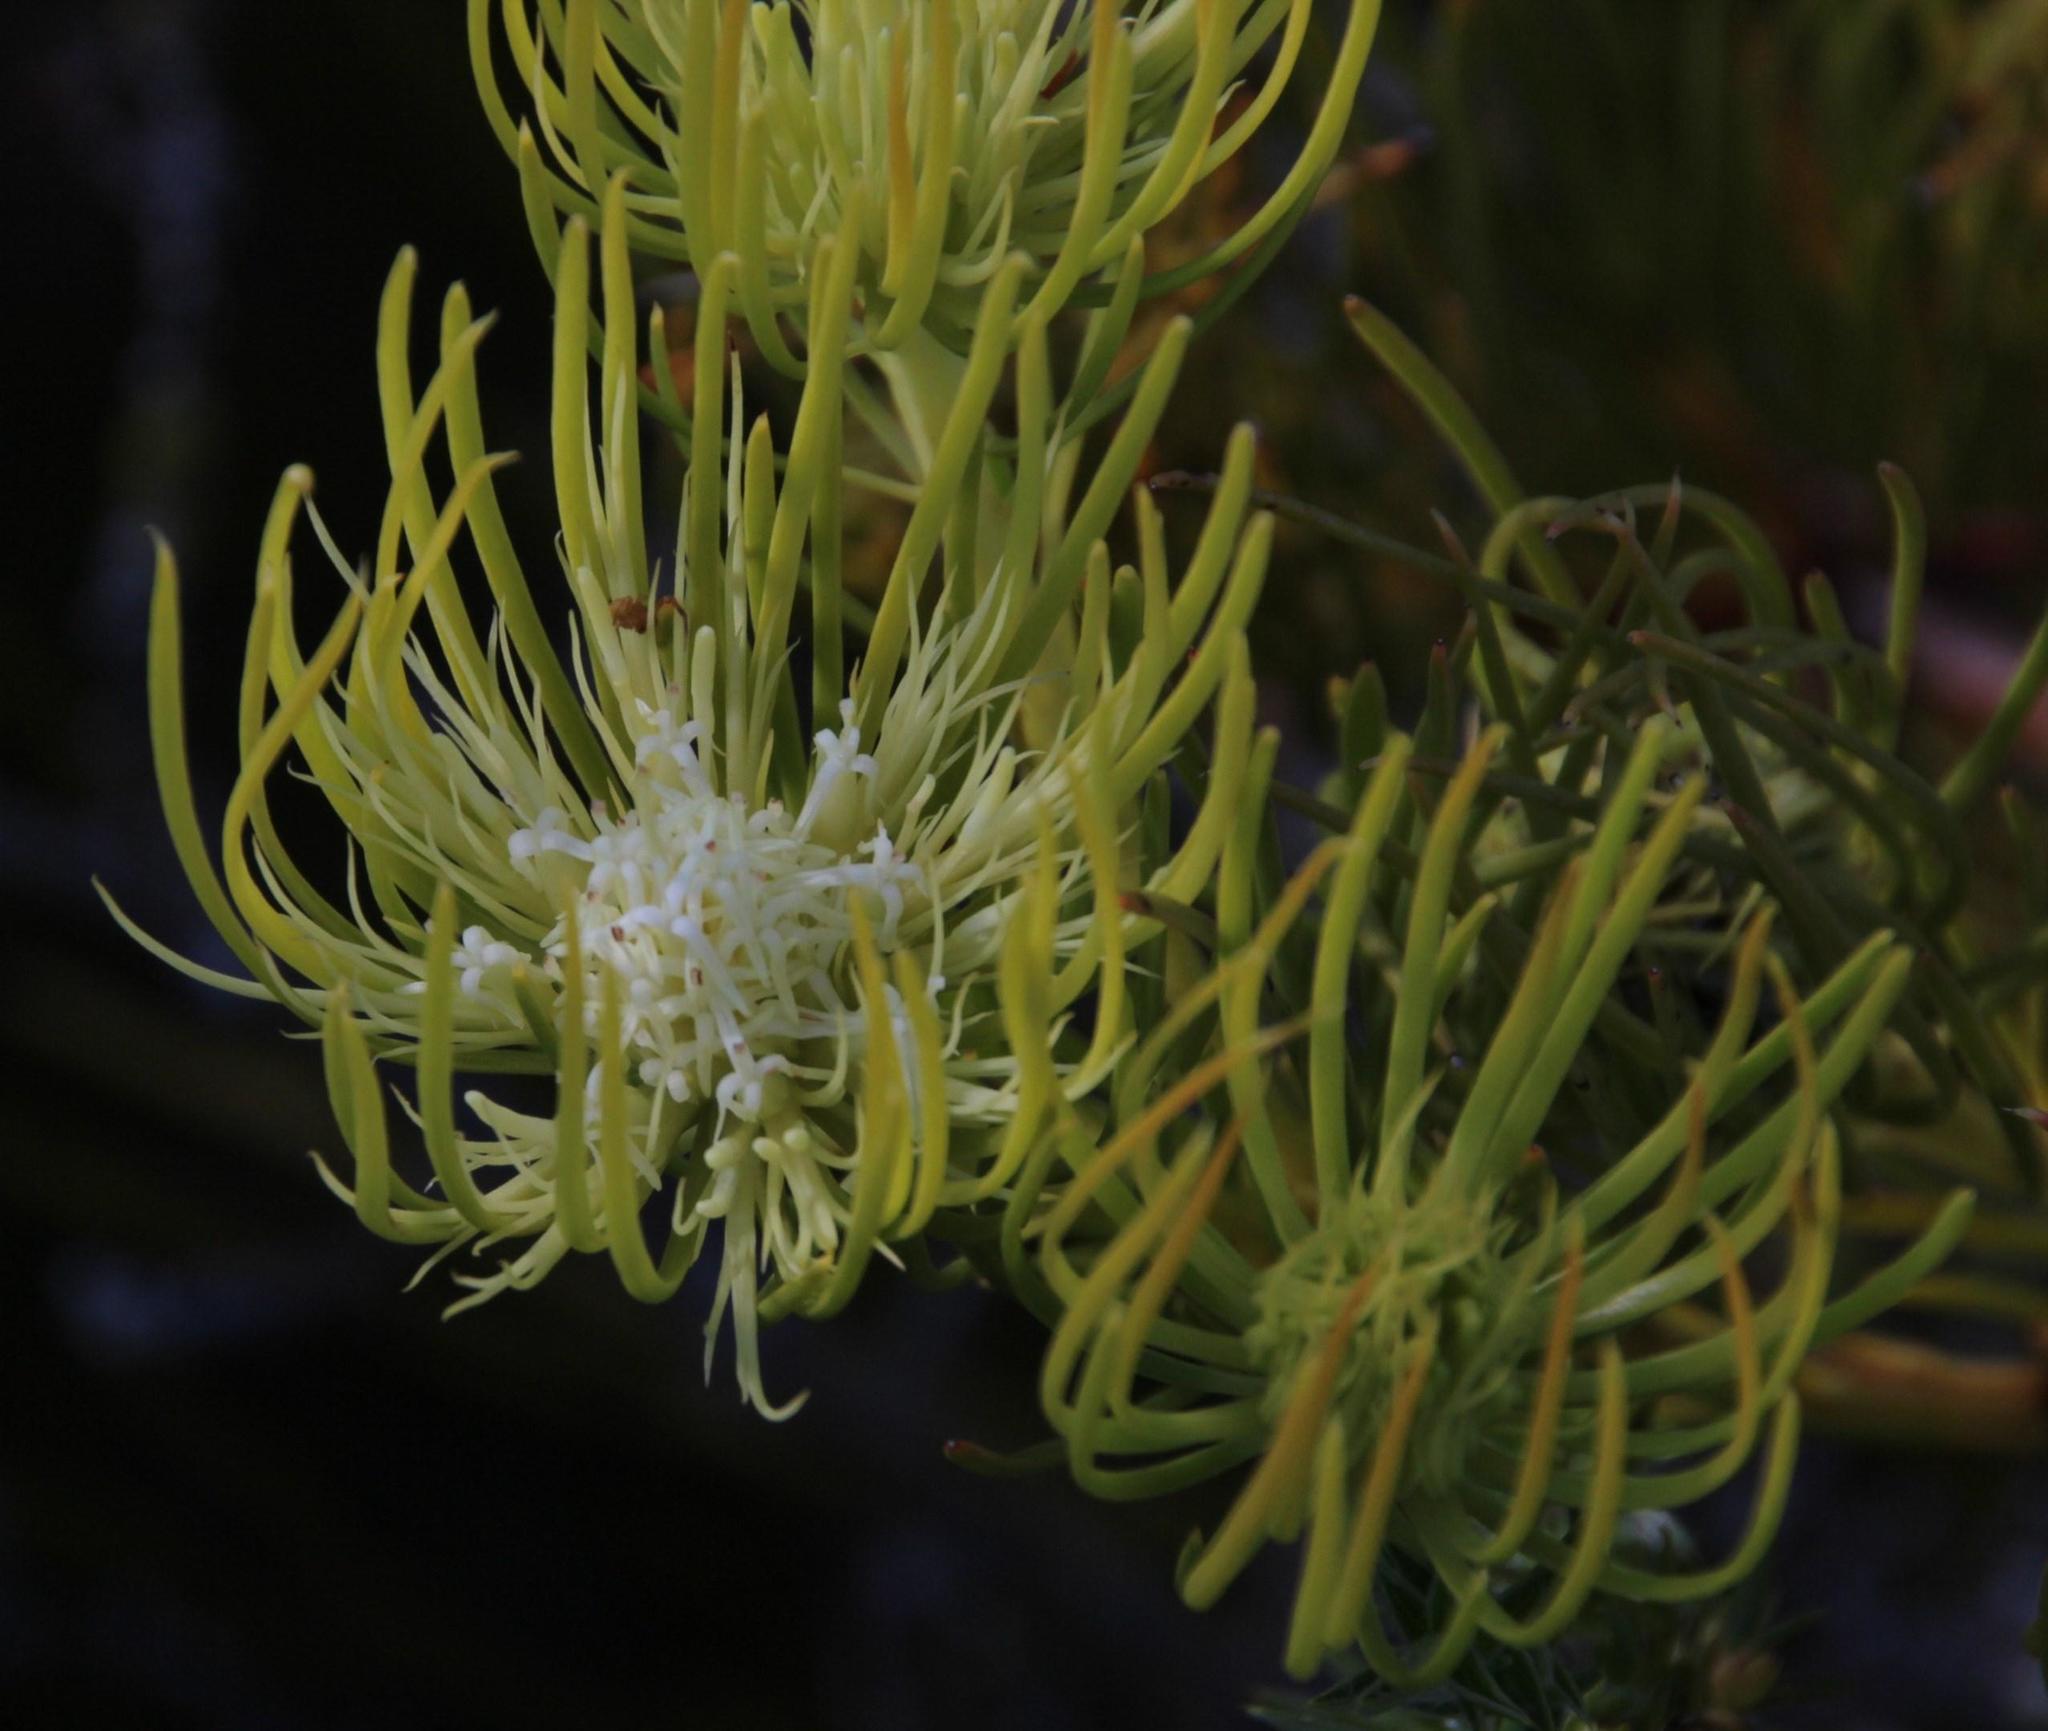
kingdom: Plantae
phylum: Tracheophyta
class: Magnoliopsida
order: Proteales
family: Proteaceae
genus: Aulax
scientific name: Aulax pallasia
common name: Needle-leaf featherbush
